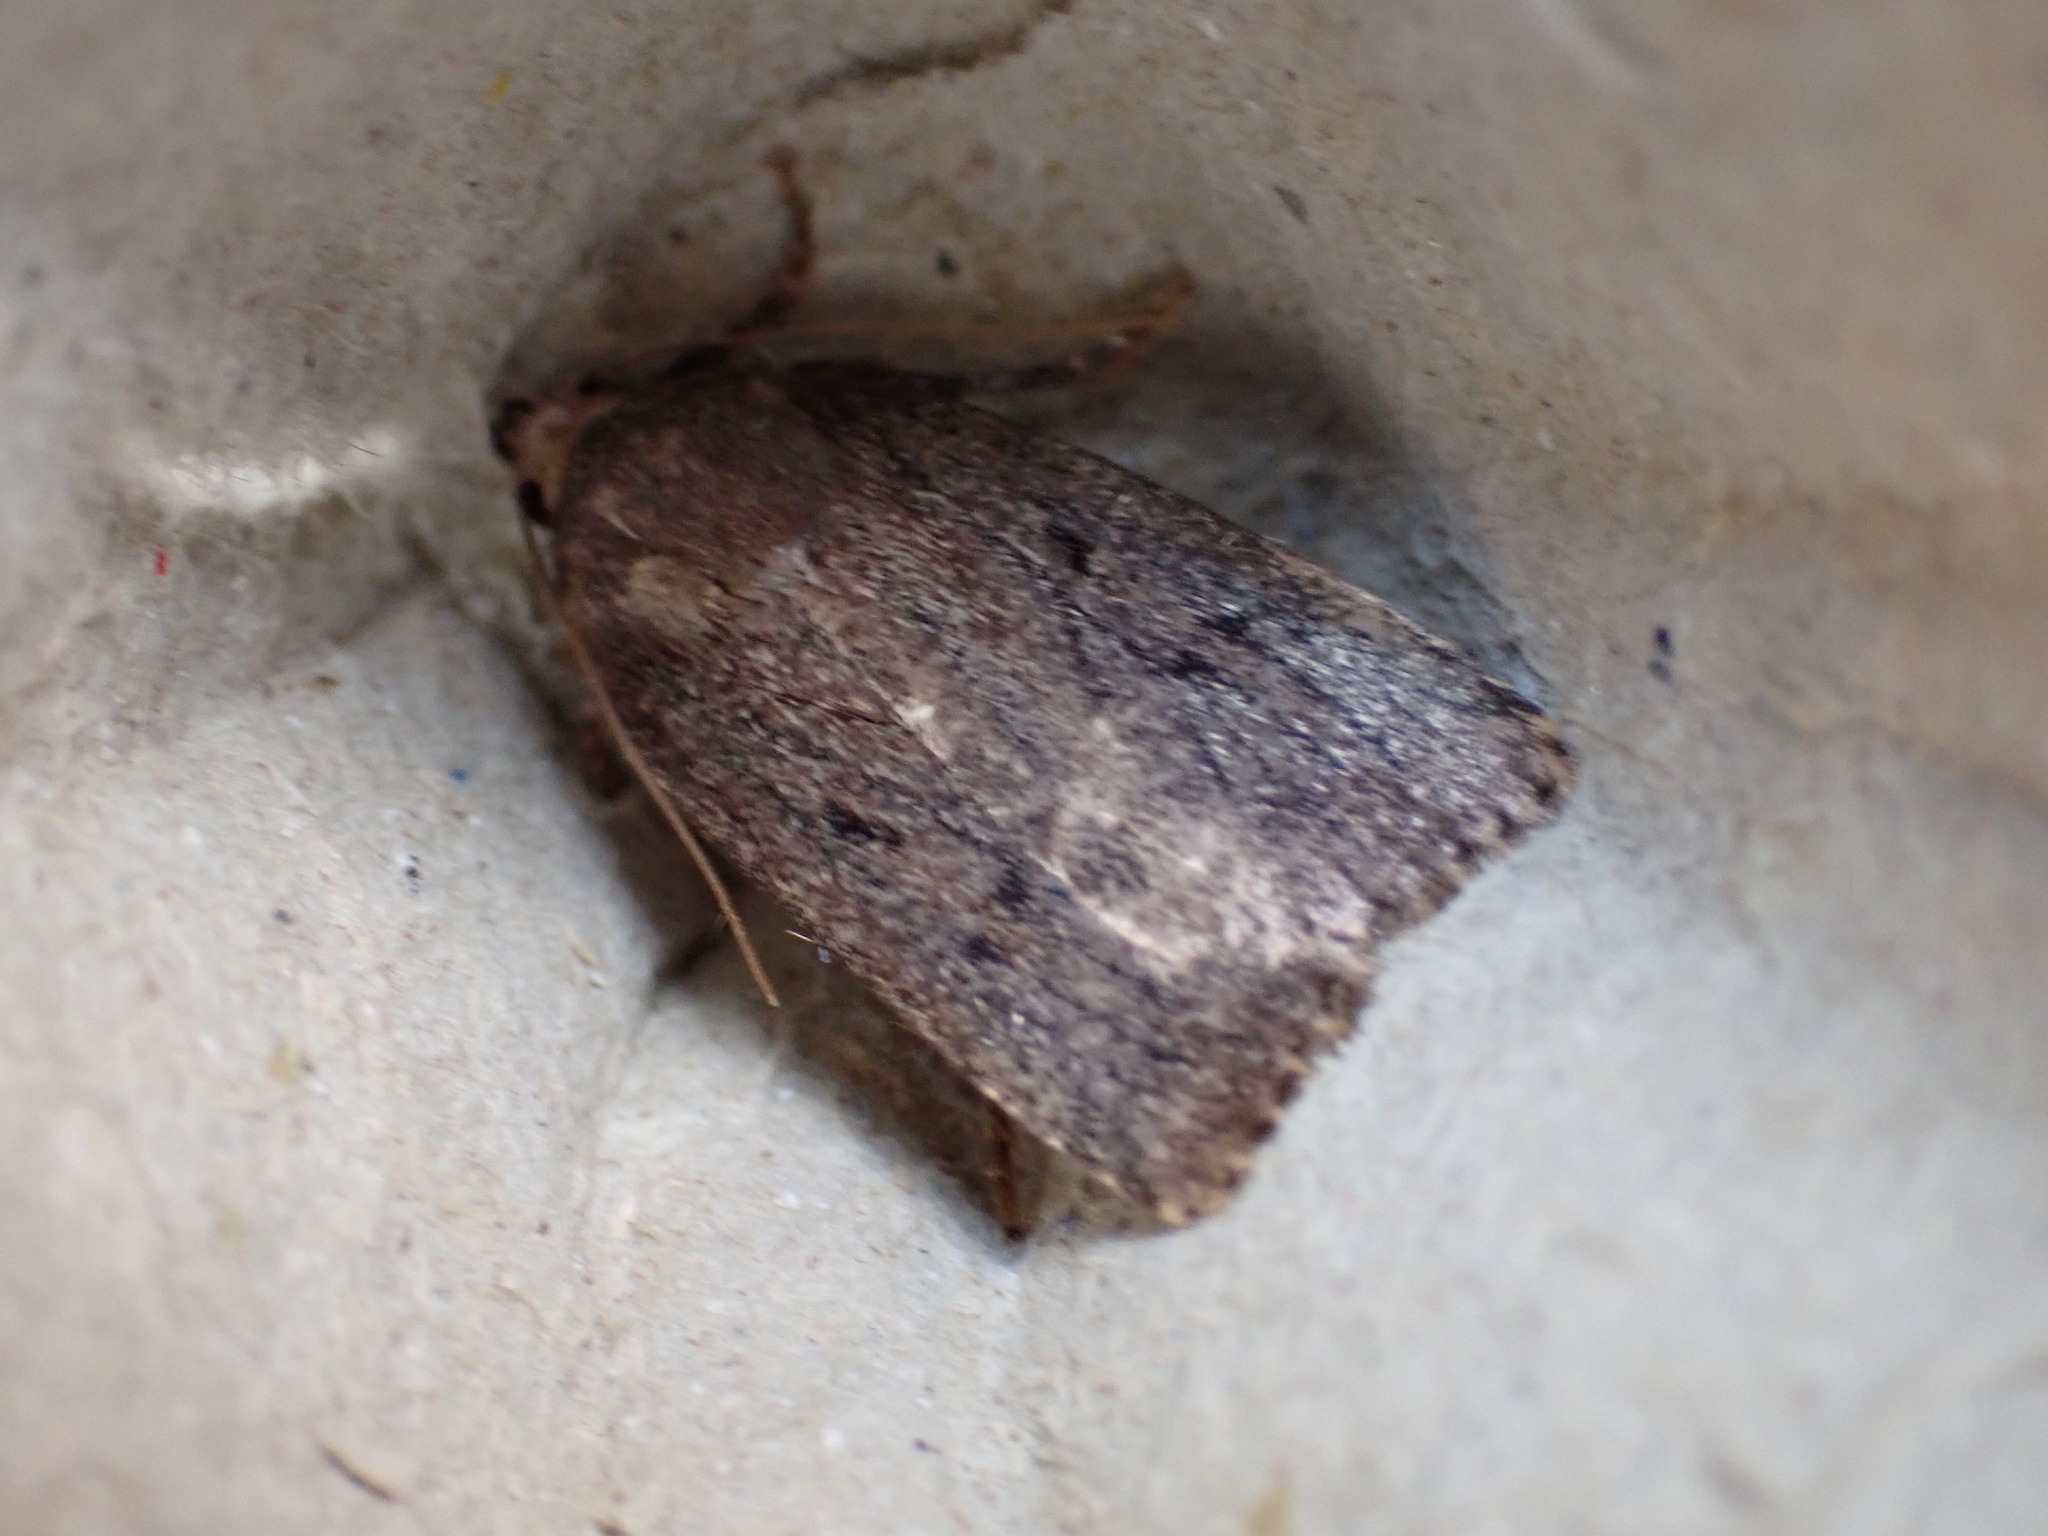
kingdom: Animalia
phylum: Arthropoda
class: Insecta
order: Lepidoptera
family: Noctuidae
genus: Amphipyra
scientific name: Amphipyra tragopoginis
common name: Mouse moth
